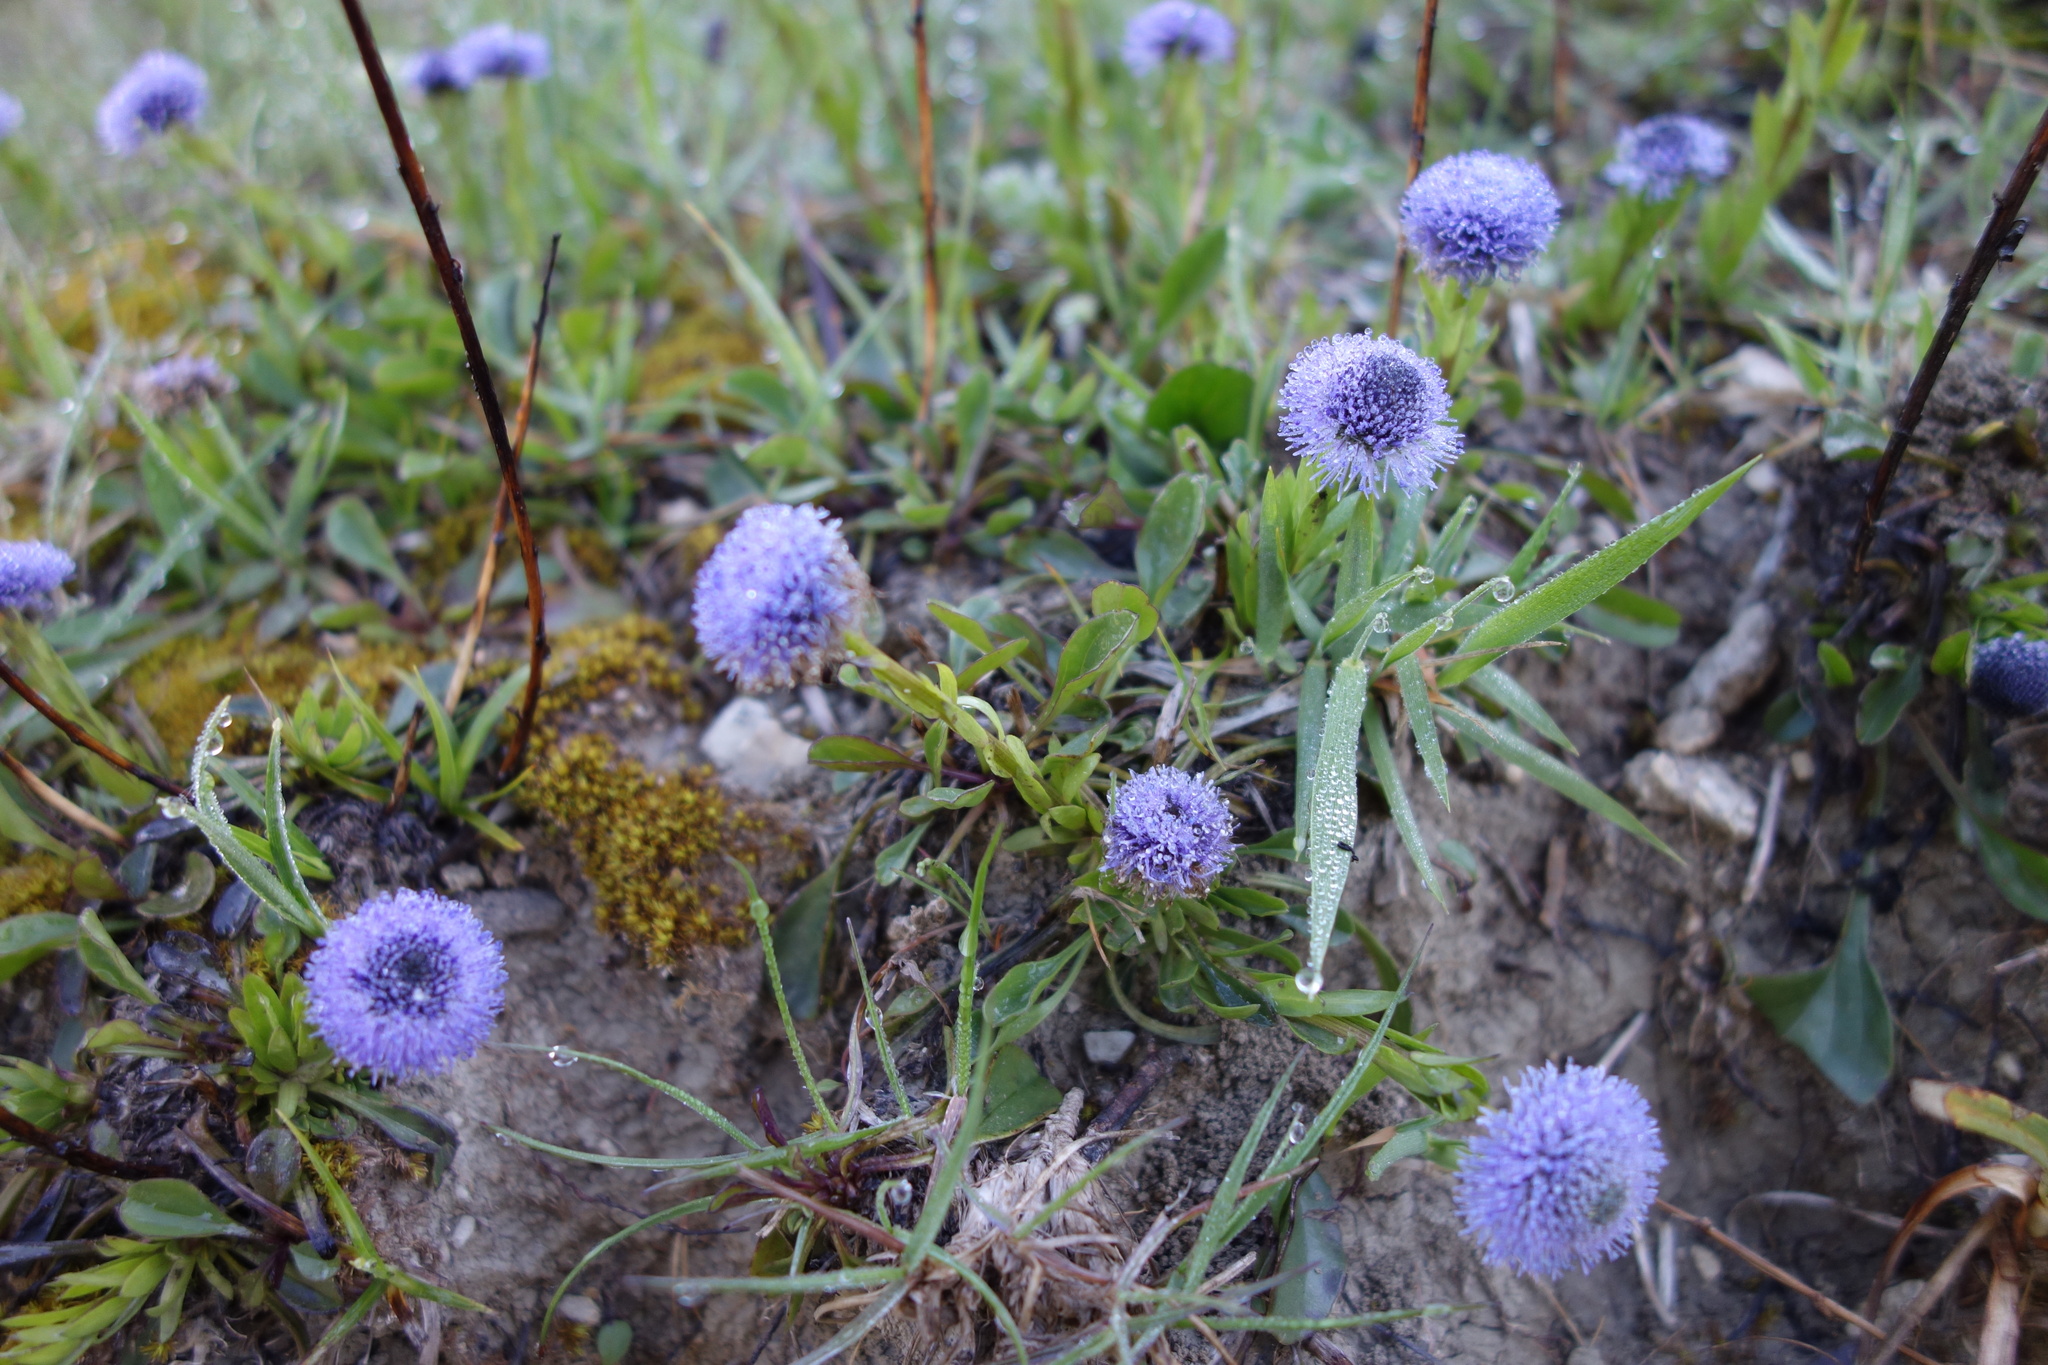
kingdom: Plantae
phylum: Tracheophyta
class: Magnoliopsida
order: Lamiales
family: Plantaginaceae
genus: Globularia
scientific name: Globularia bisnagarica
